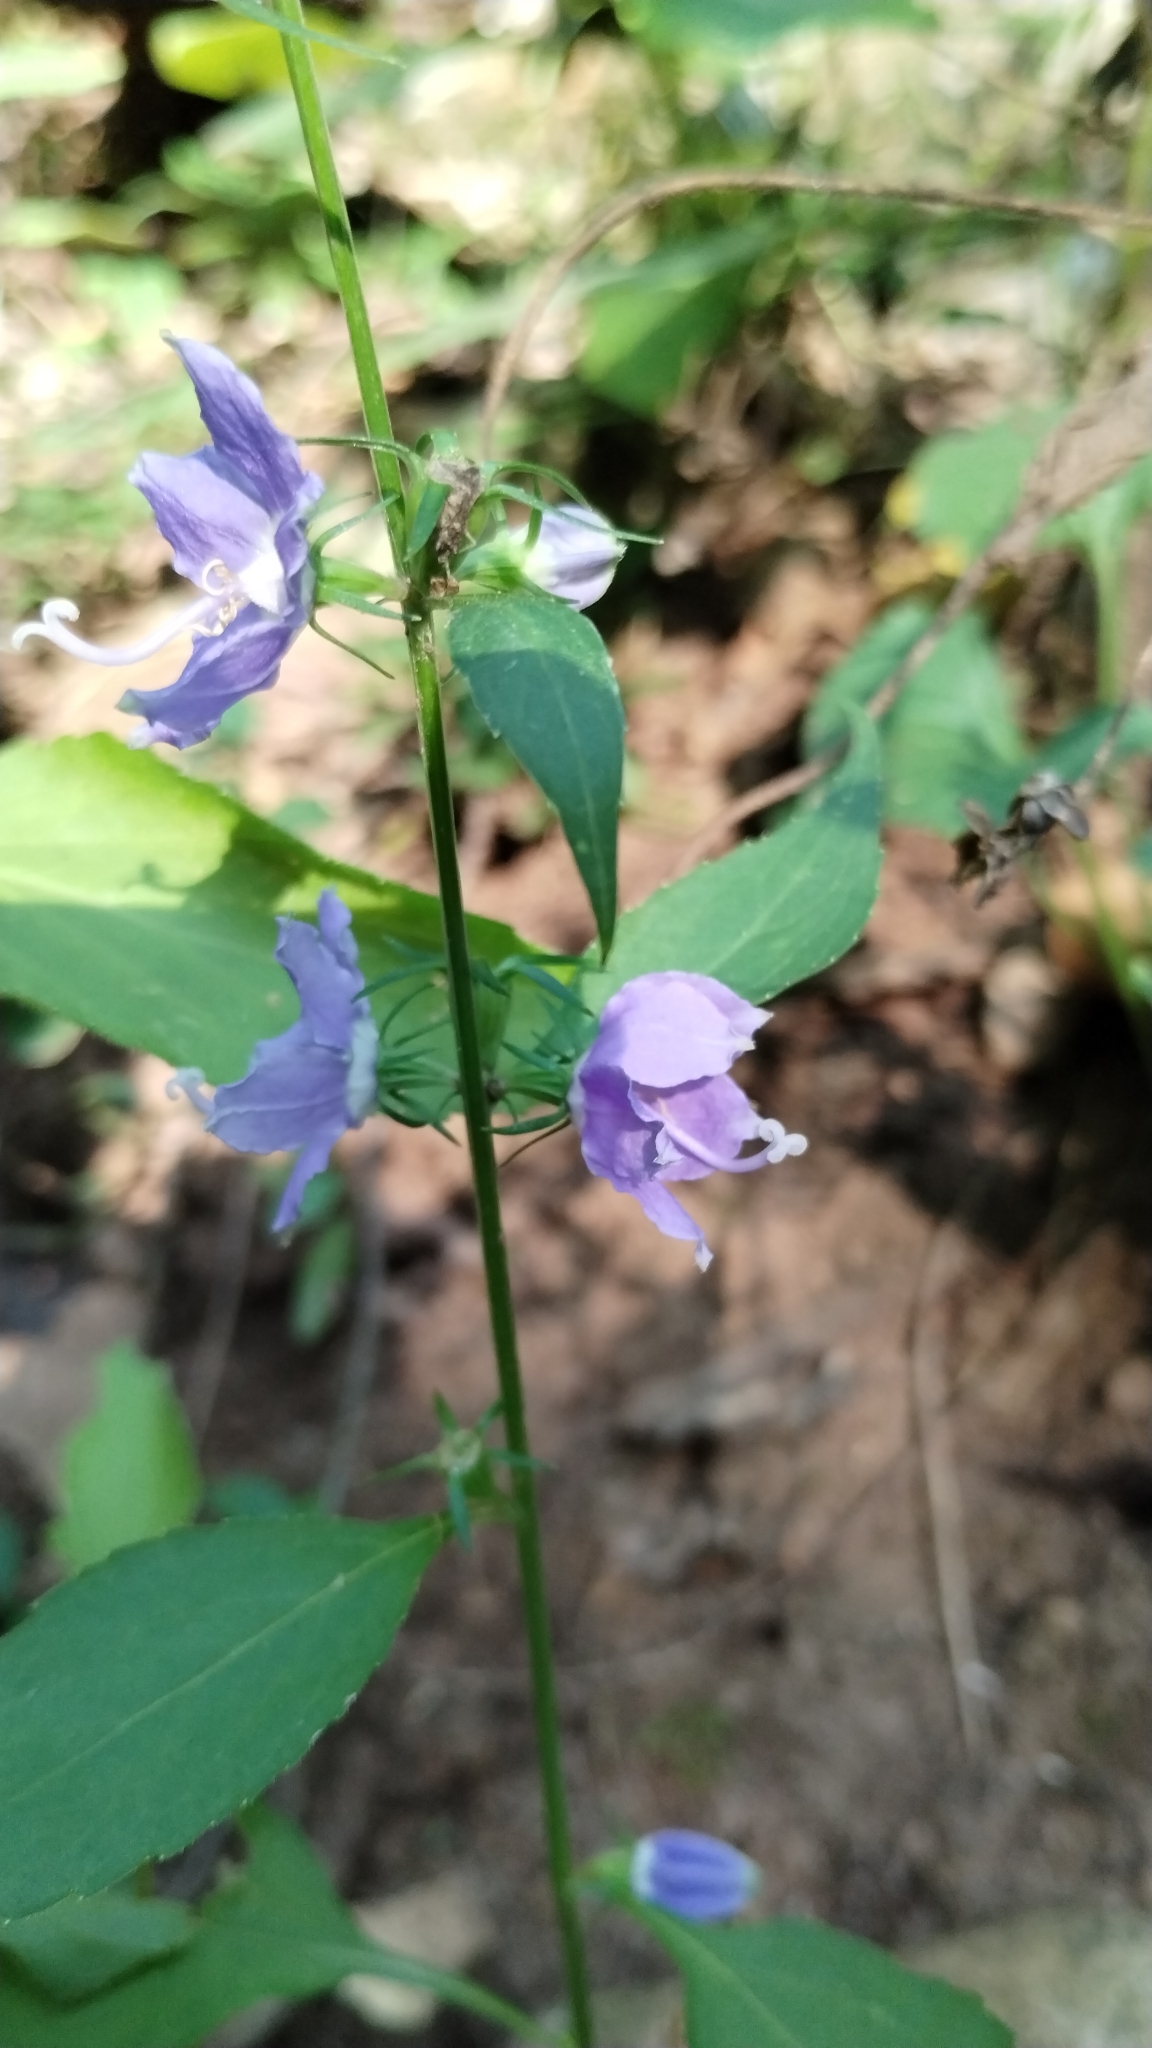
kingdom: Plantae
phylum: Tracheophyta
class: Magnoliopsida
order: Asterales
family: Campanulaceae
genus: Campanulastrum
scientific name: Campanulastrum americanum
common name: American bellflower
